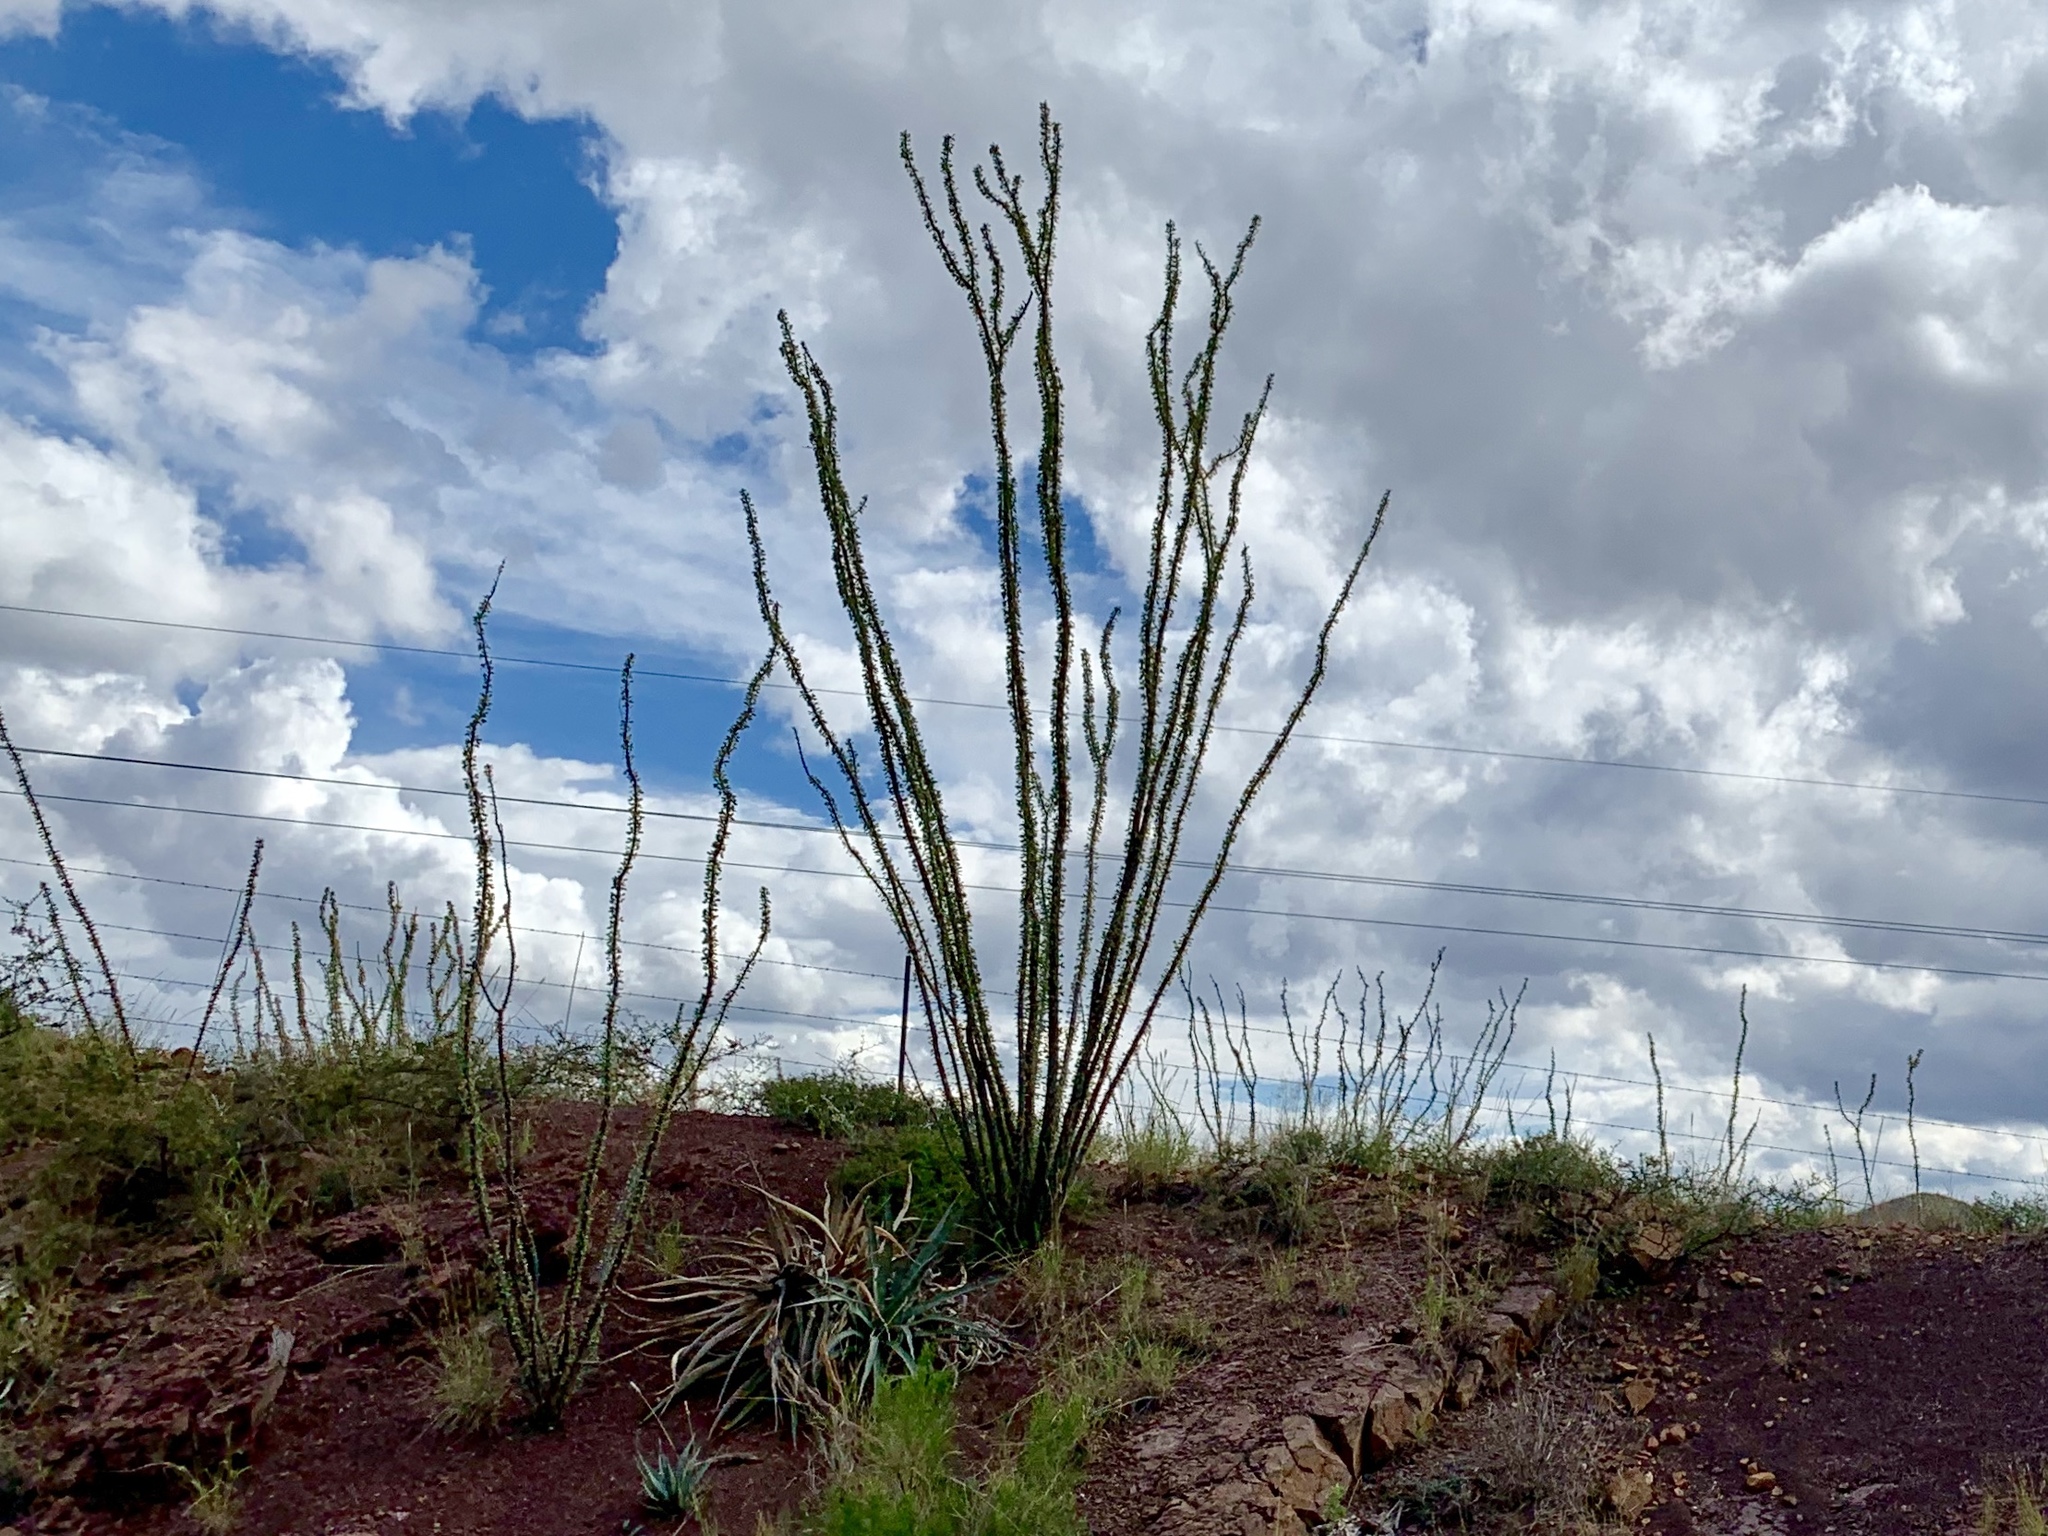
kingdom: Plantae
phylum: Tracheophyta
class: Magnoliopsida
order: Ericales
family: Fouquieriaceae
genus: Fouquieria
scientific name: Fouquieria splendens
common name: Vine-cactus
